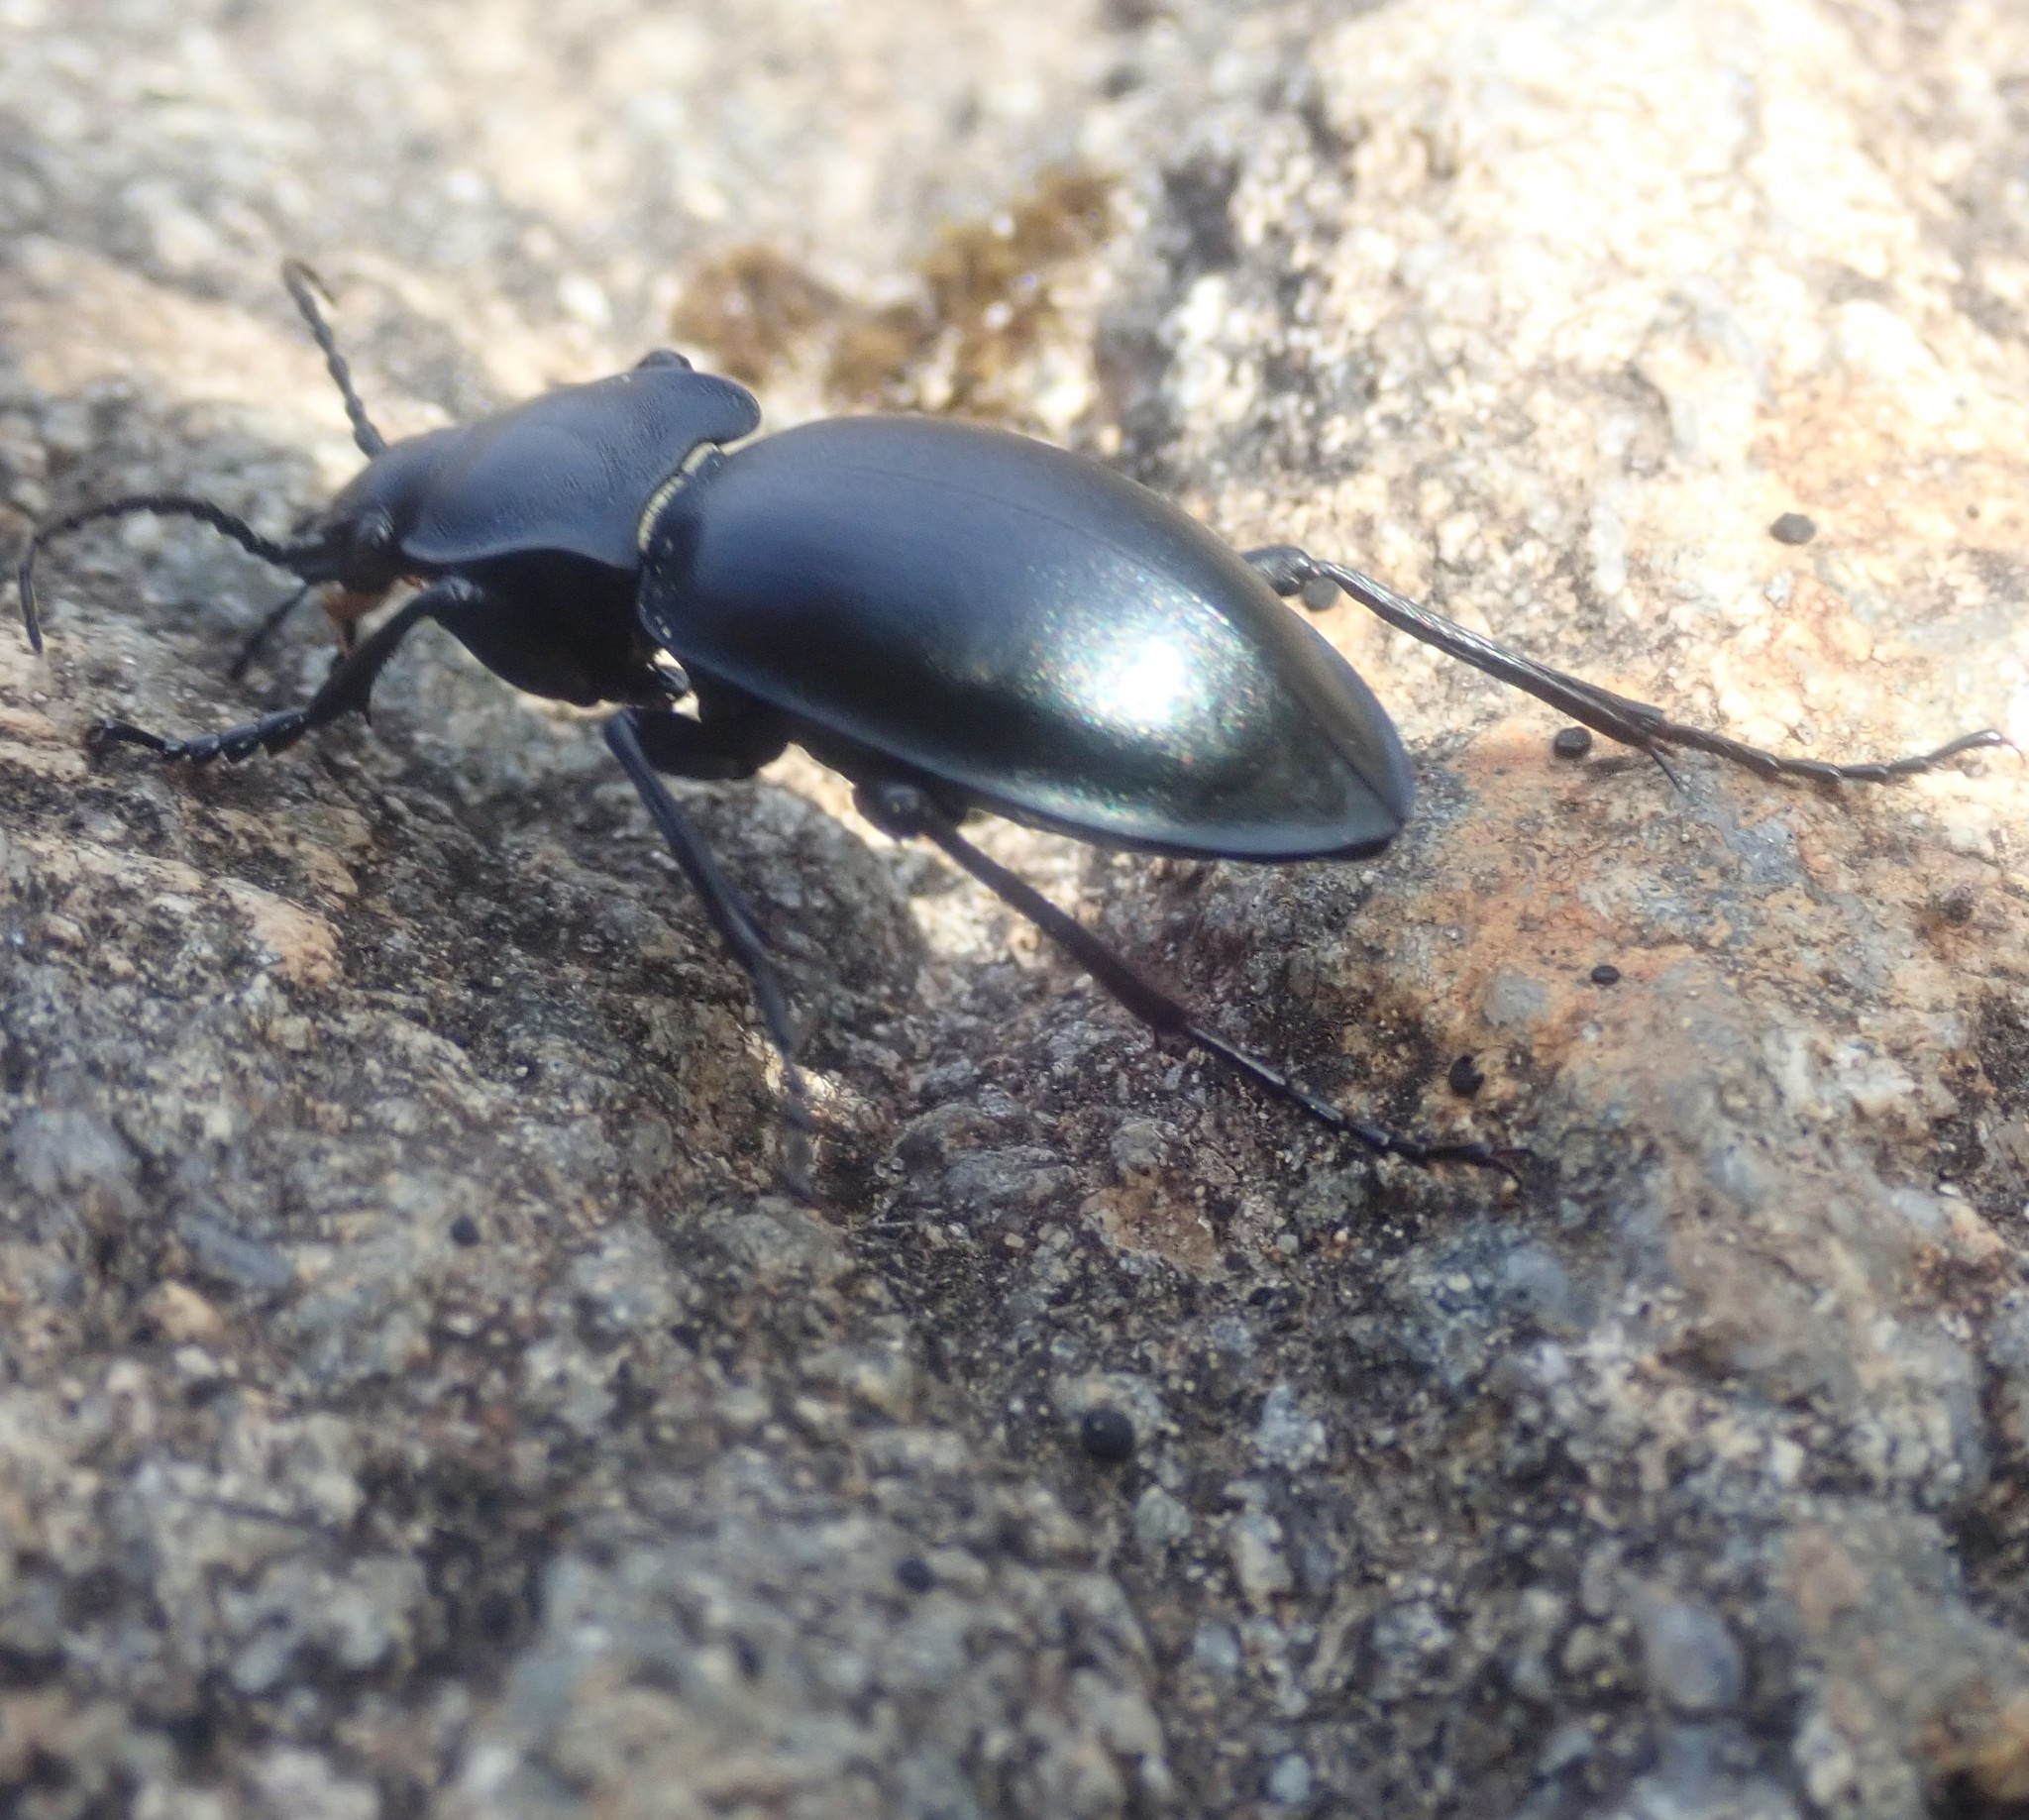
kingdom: Animalia
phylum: Arthropoda
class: Insecta
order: Coleoptera
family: Carabidae
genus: Carabus
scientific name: Carabus glabratus
